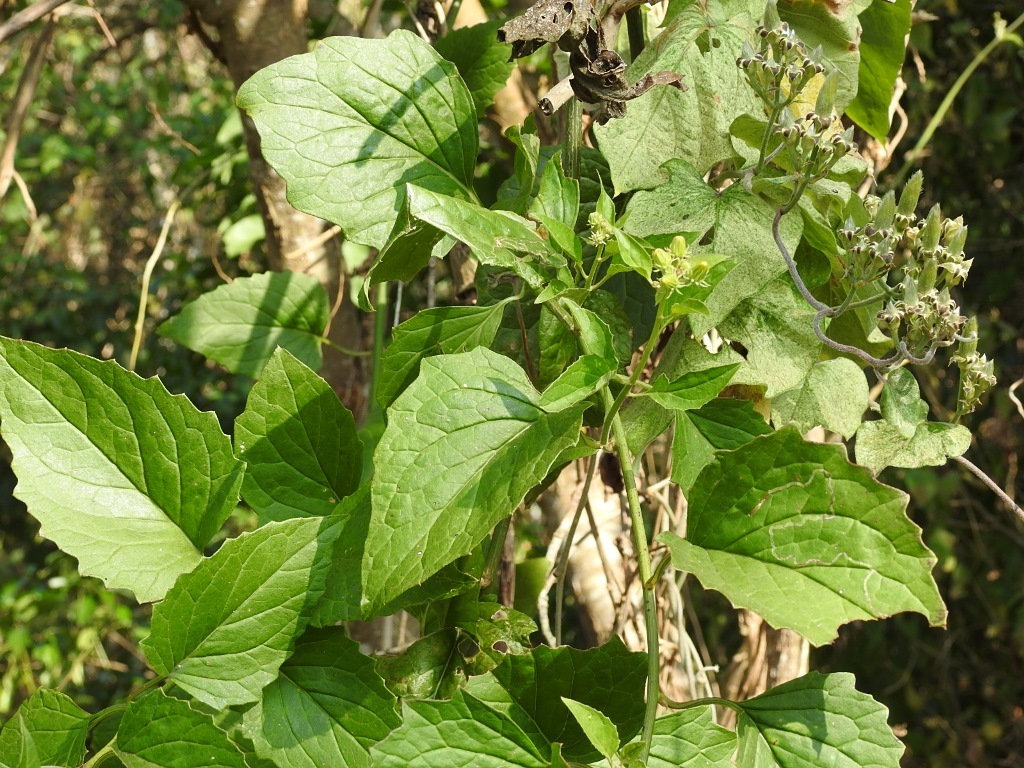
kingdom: Plantae
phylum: Tracheophyta
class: Magnoliopsida
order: Asterales
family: Asteraceae
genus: Pseudogynoxys
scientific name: Pseudogynoxys haenkei
